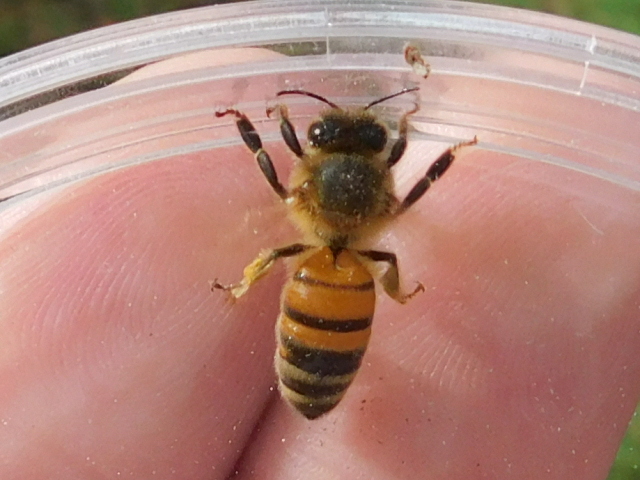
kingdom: Animalia
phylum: Arthropoda
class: Insecta
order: Hymenoptera
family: Apidae
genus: Apis
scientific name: Apis mellifera
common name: Honey bee
